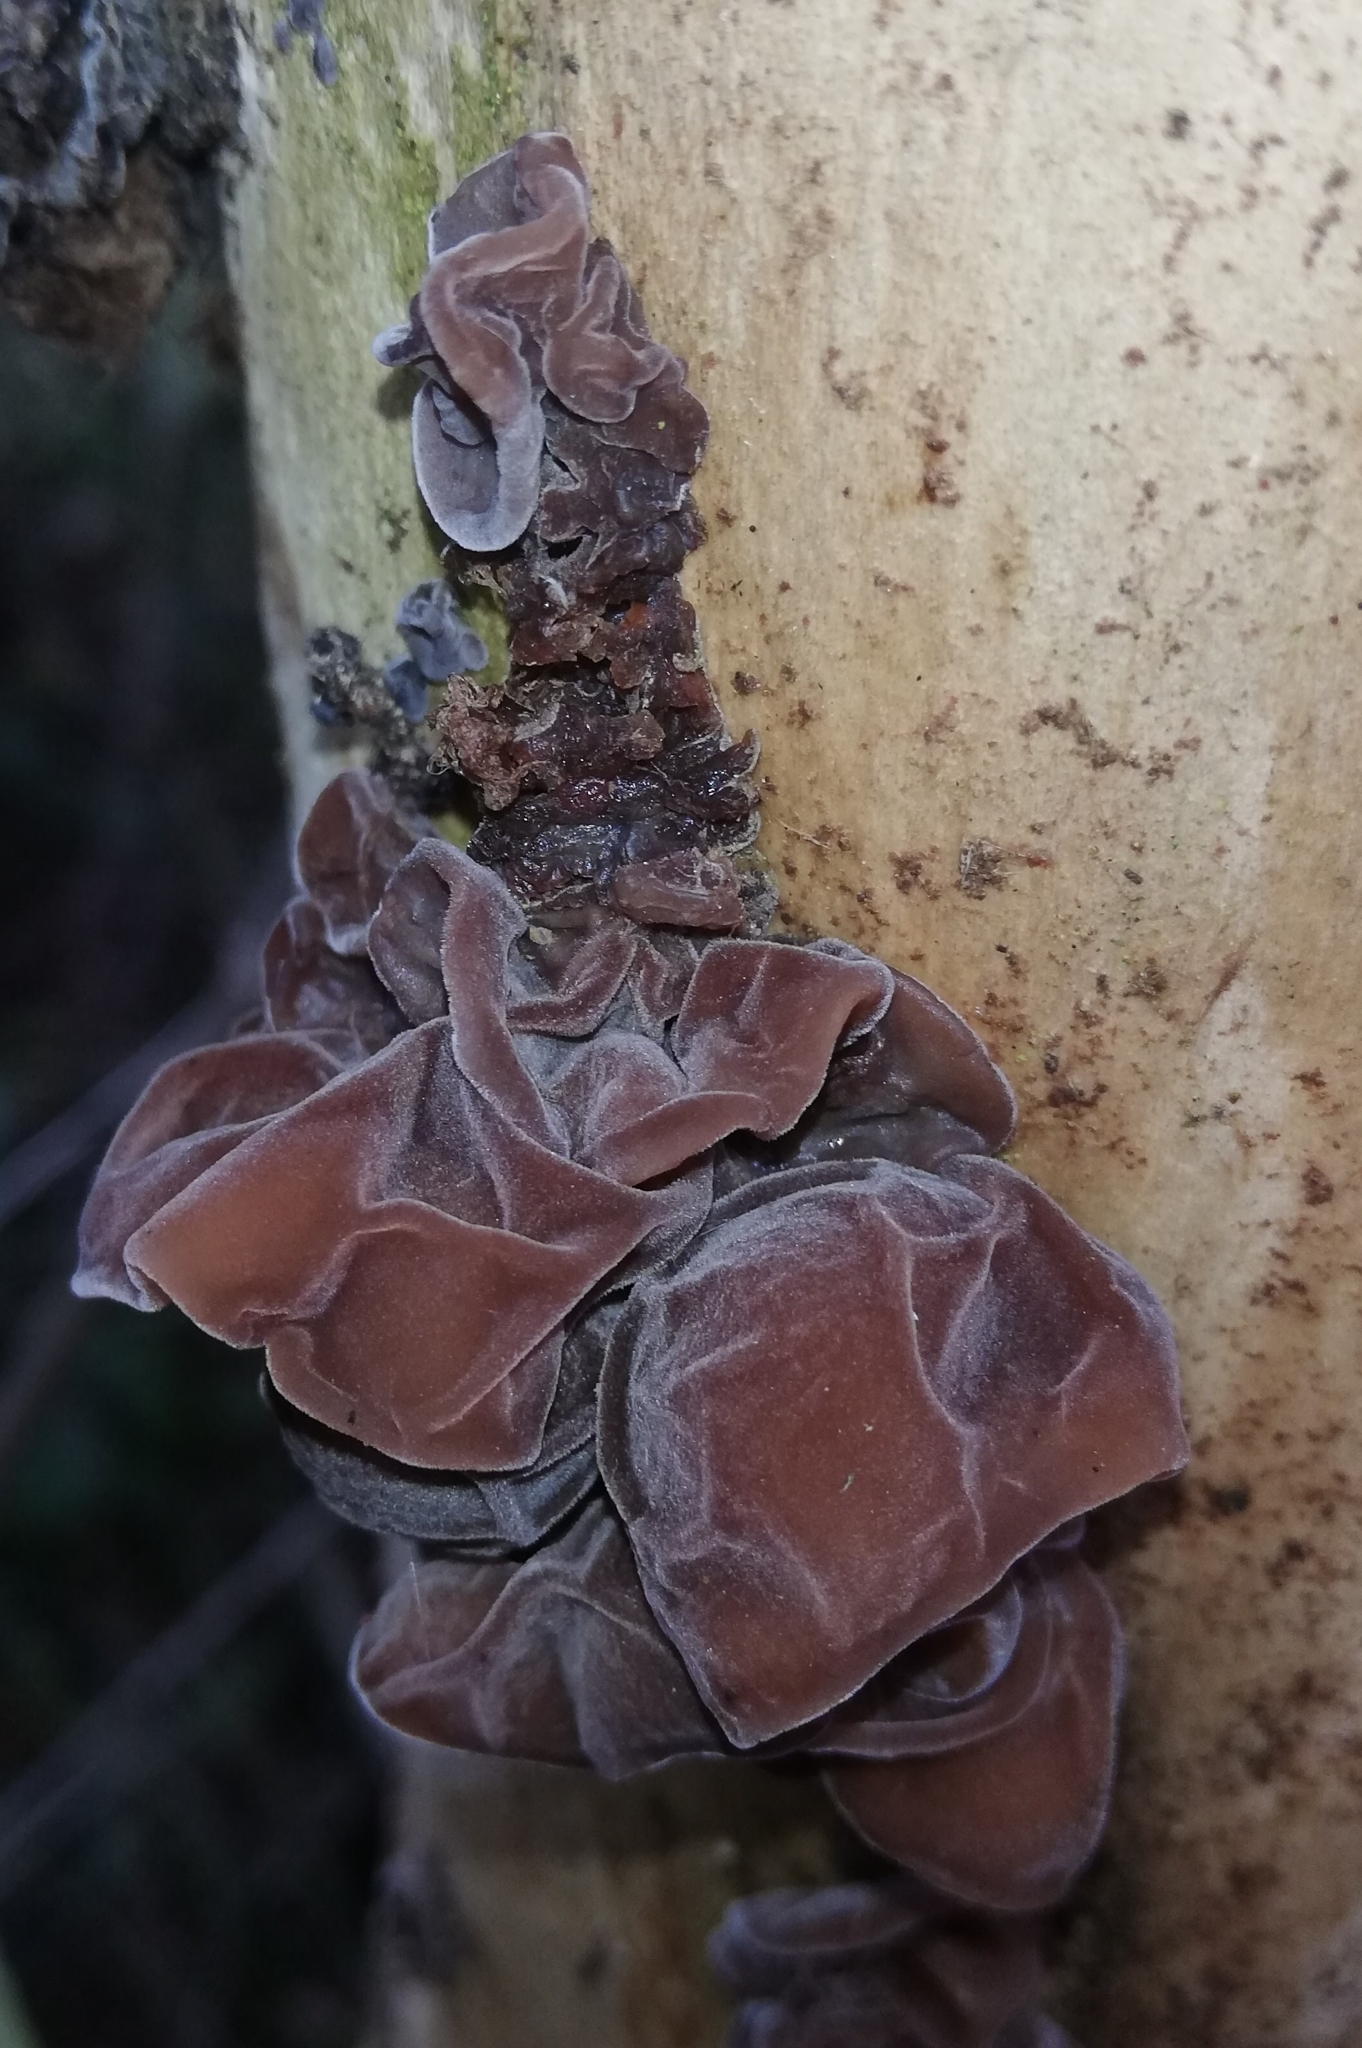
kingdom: Fungi
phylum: Basidiomycota
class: Agaricomycetes
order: Auriculariales
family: Auriculariaceae
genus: Auricularia
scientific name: Auricularia auricula-judae
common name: Jelly ear
